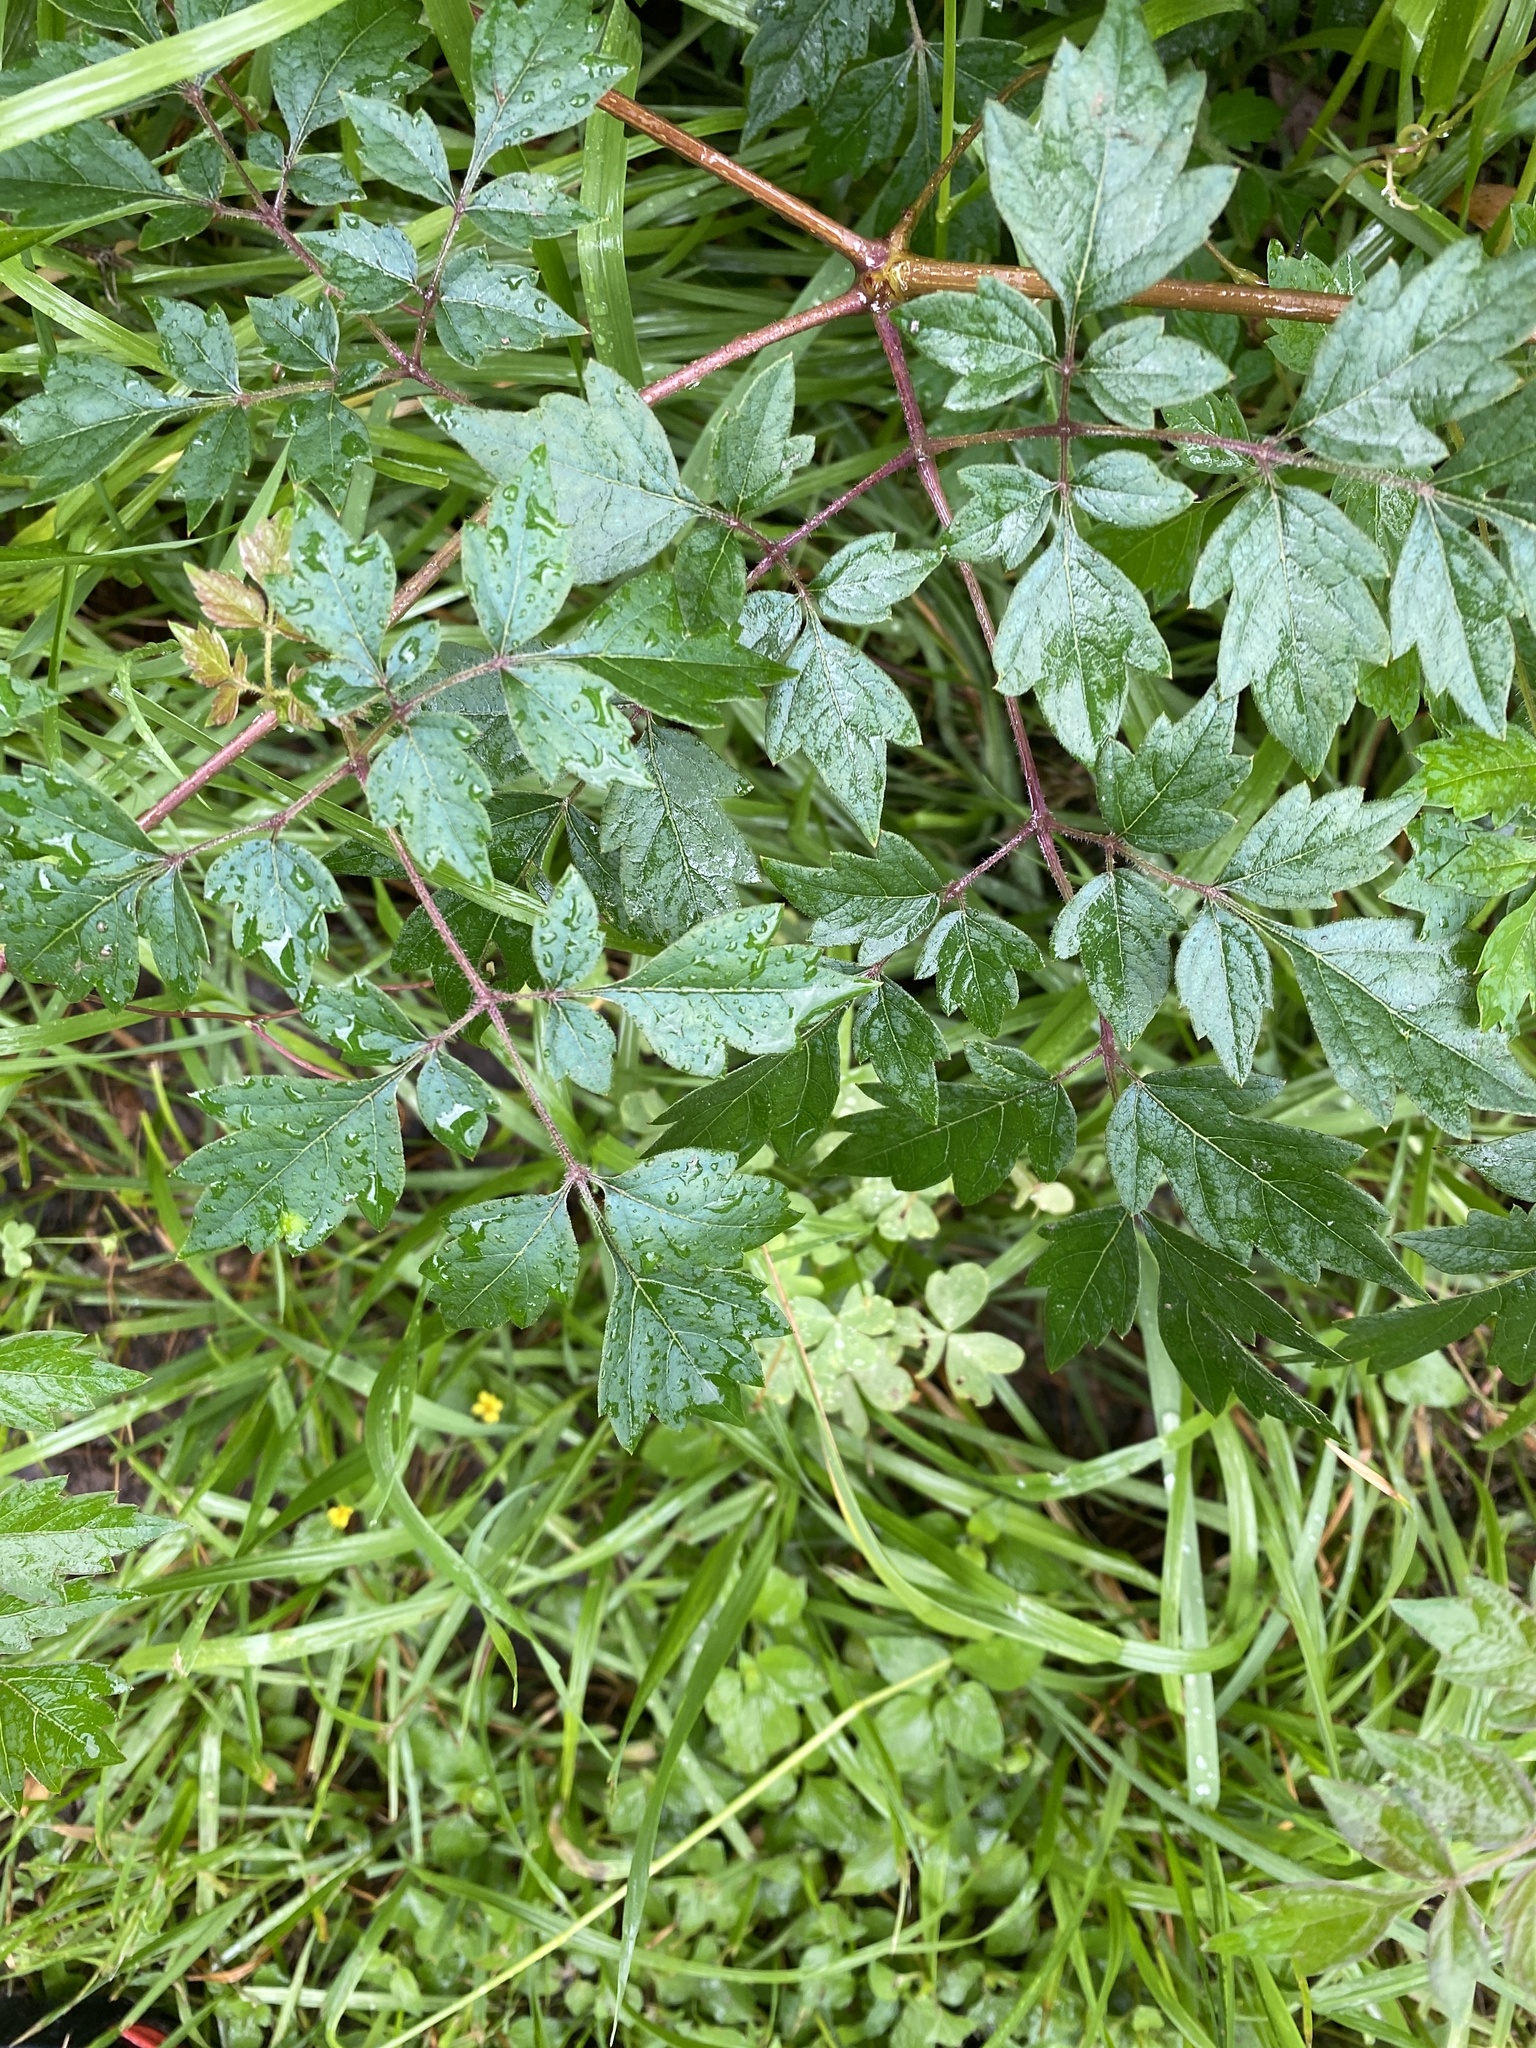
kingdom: Plantae
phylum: Tracheophyta
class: Magnoliopsida
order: Vitales
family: Vitaceae
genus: Nekemias
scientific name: Nekemias arborea
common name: Peppervine
